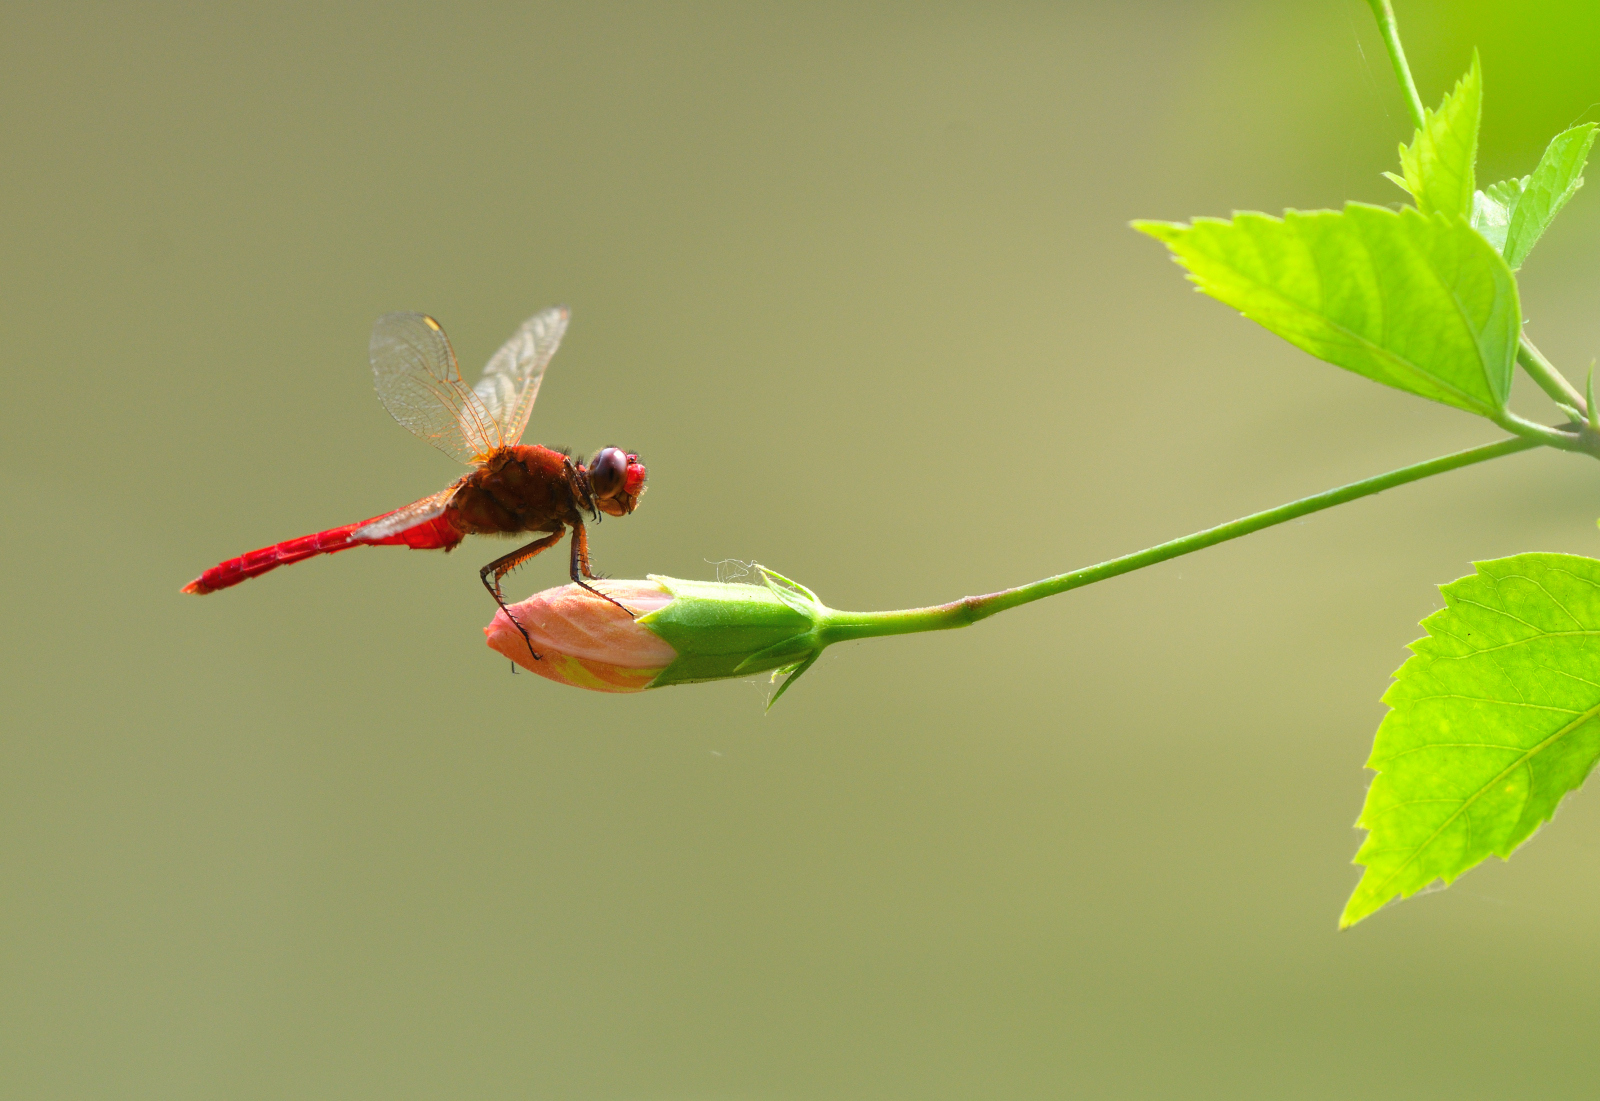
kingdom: Animalia
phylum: Arthropoda
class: Insecta
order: Odonata
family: Libellulidae
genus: Rhodothemis
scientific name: Rhodothemis rufa
